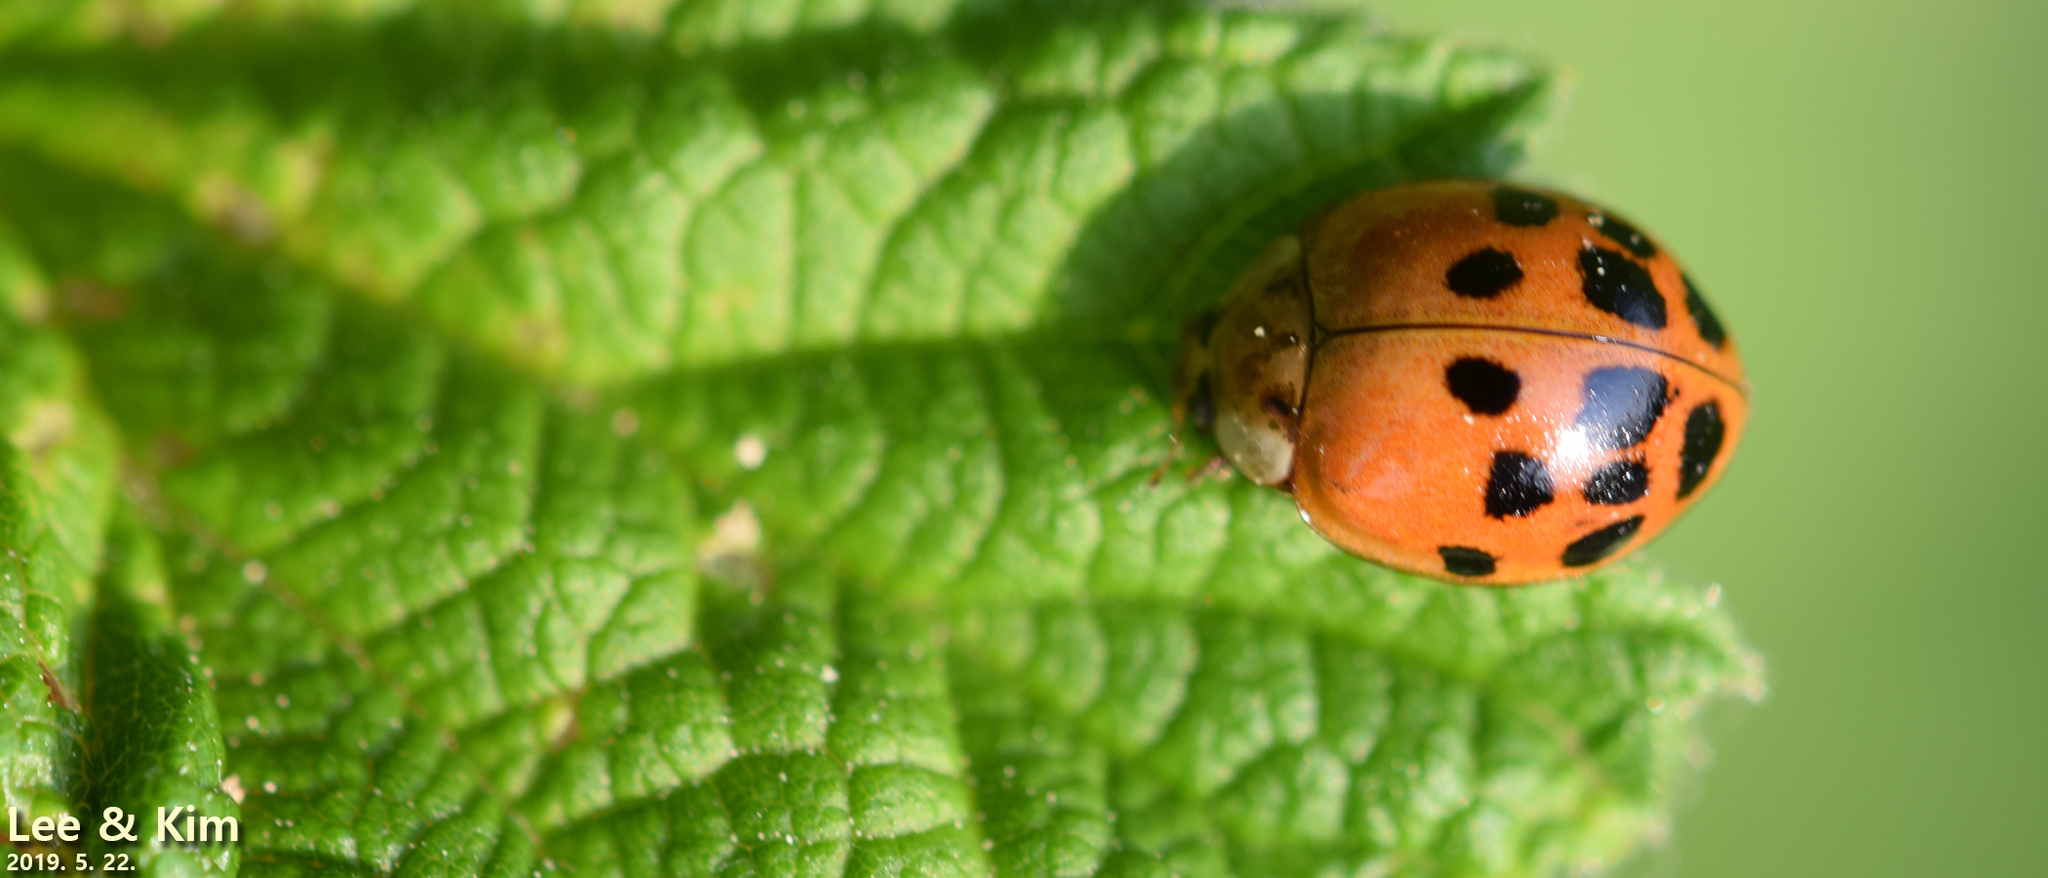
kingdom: Animalia
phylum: Arthropoda
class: Insecta
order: Coleoptera
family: Coccinellidae
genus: Harmonia
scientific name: Harmonia yedoensis
